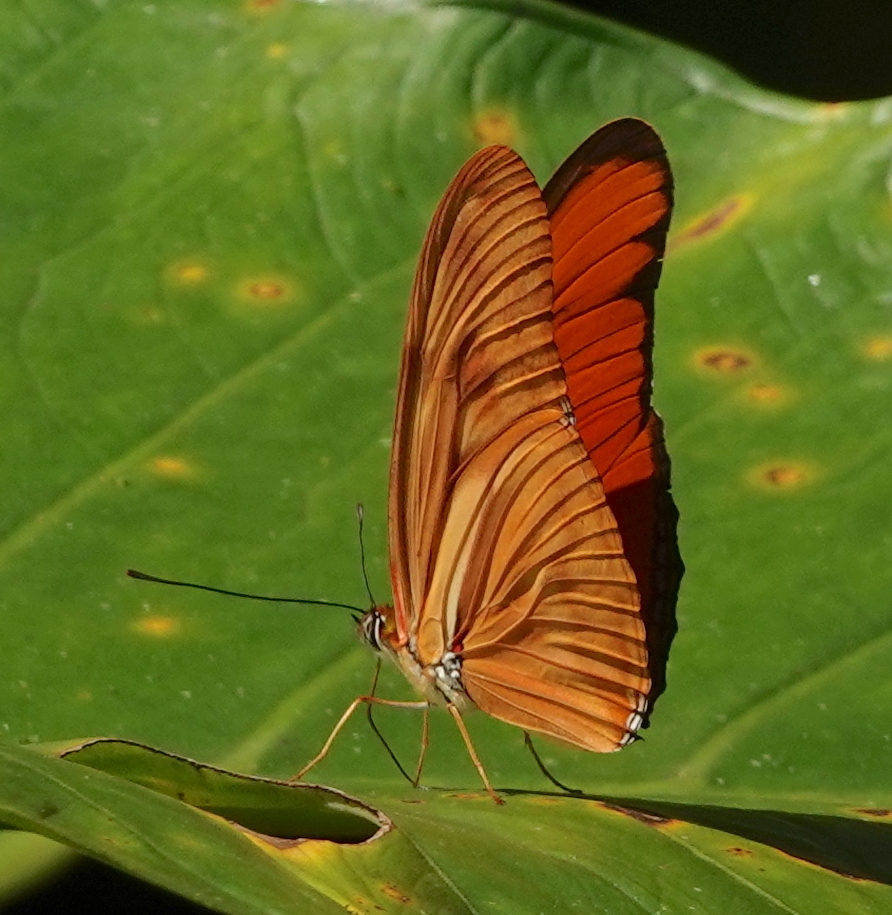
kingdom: Animalia
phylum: Arthropoda
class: Insecta
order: Lepidoptera
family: Nymphalidae
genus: Dryas
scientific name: Dryas iulia
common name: Flambeau
